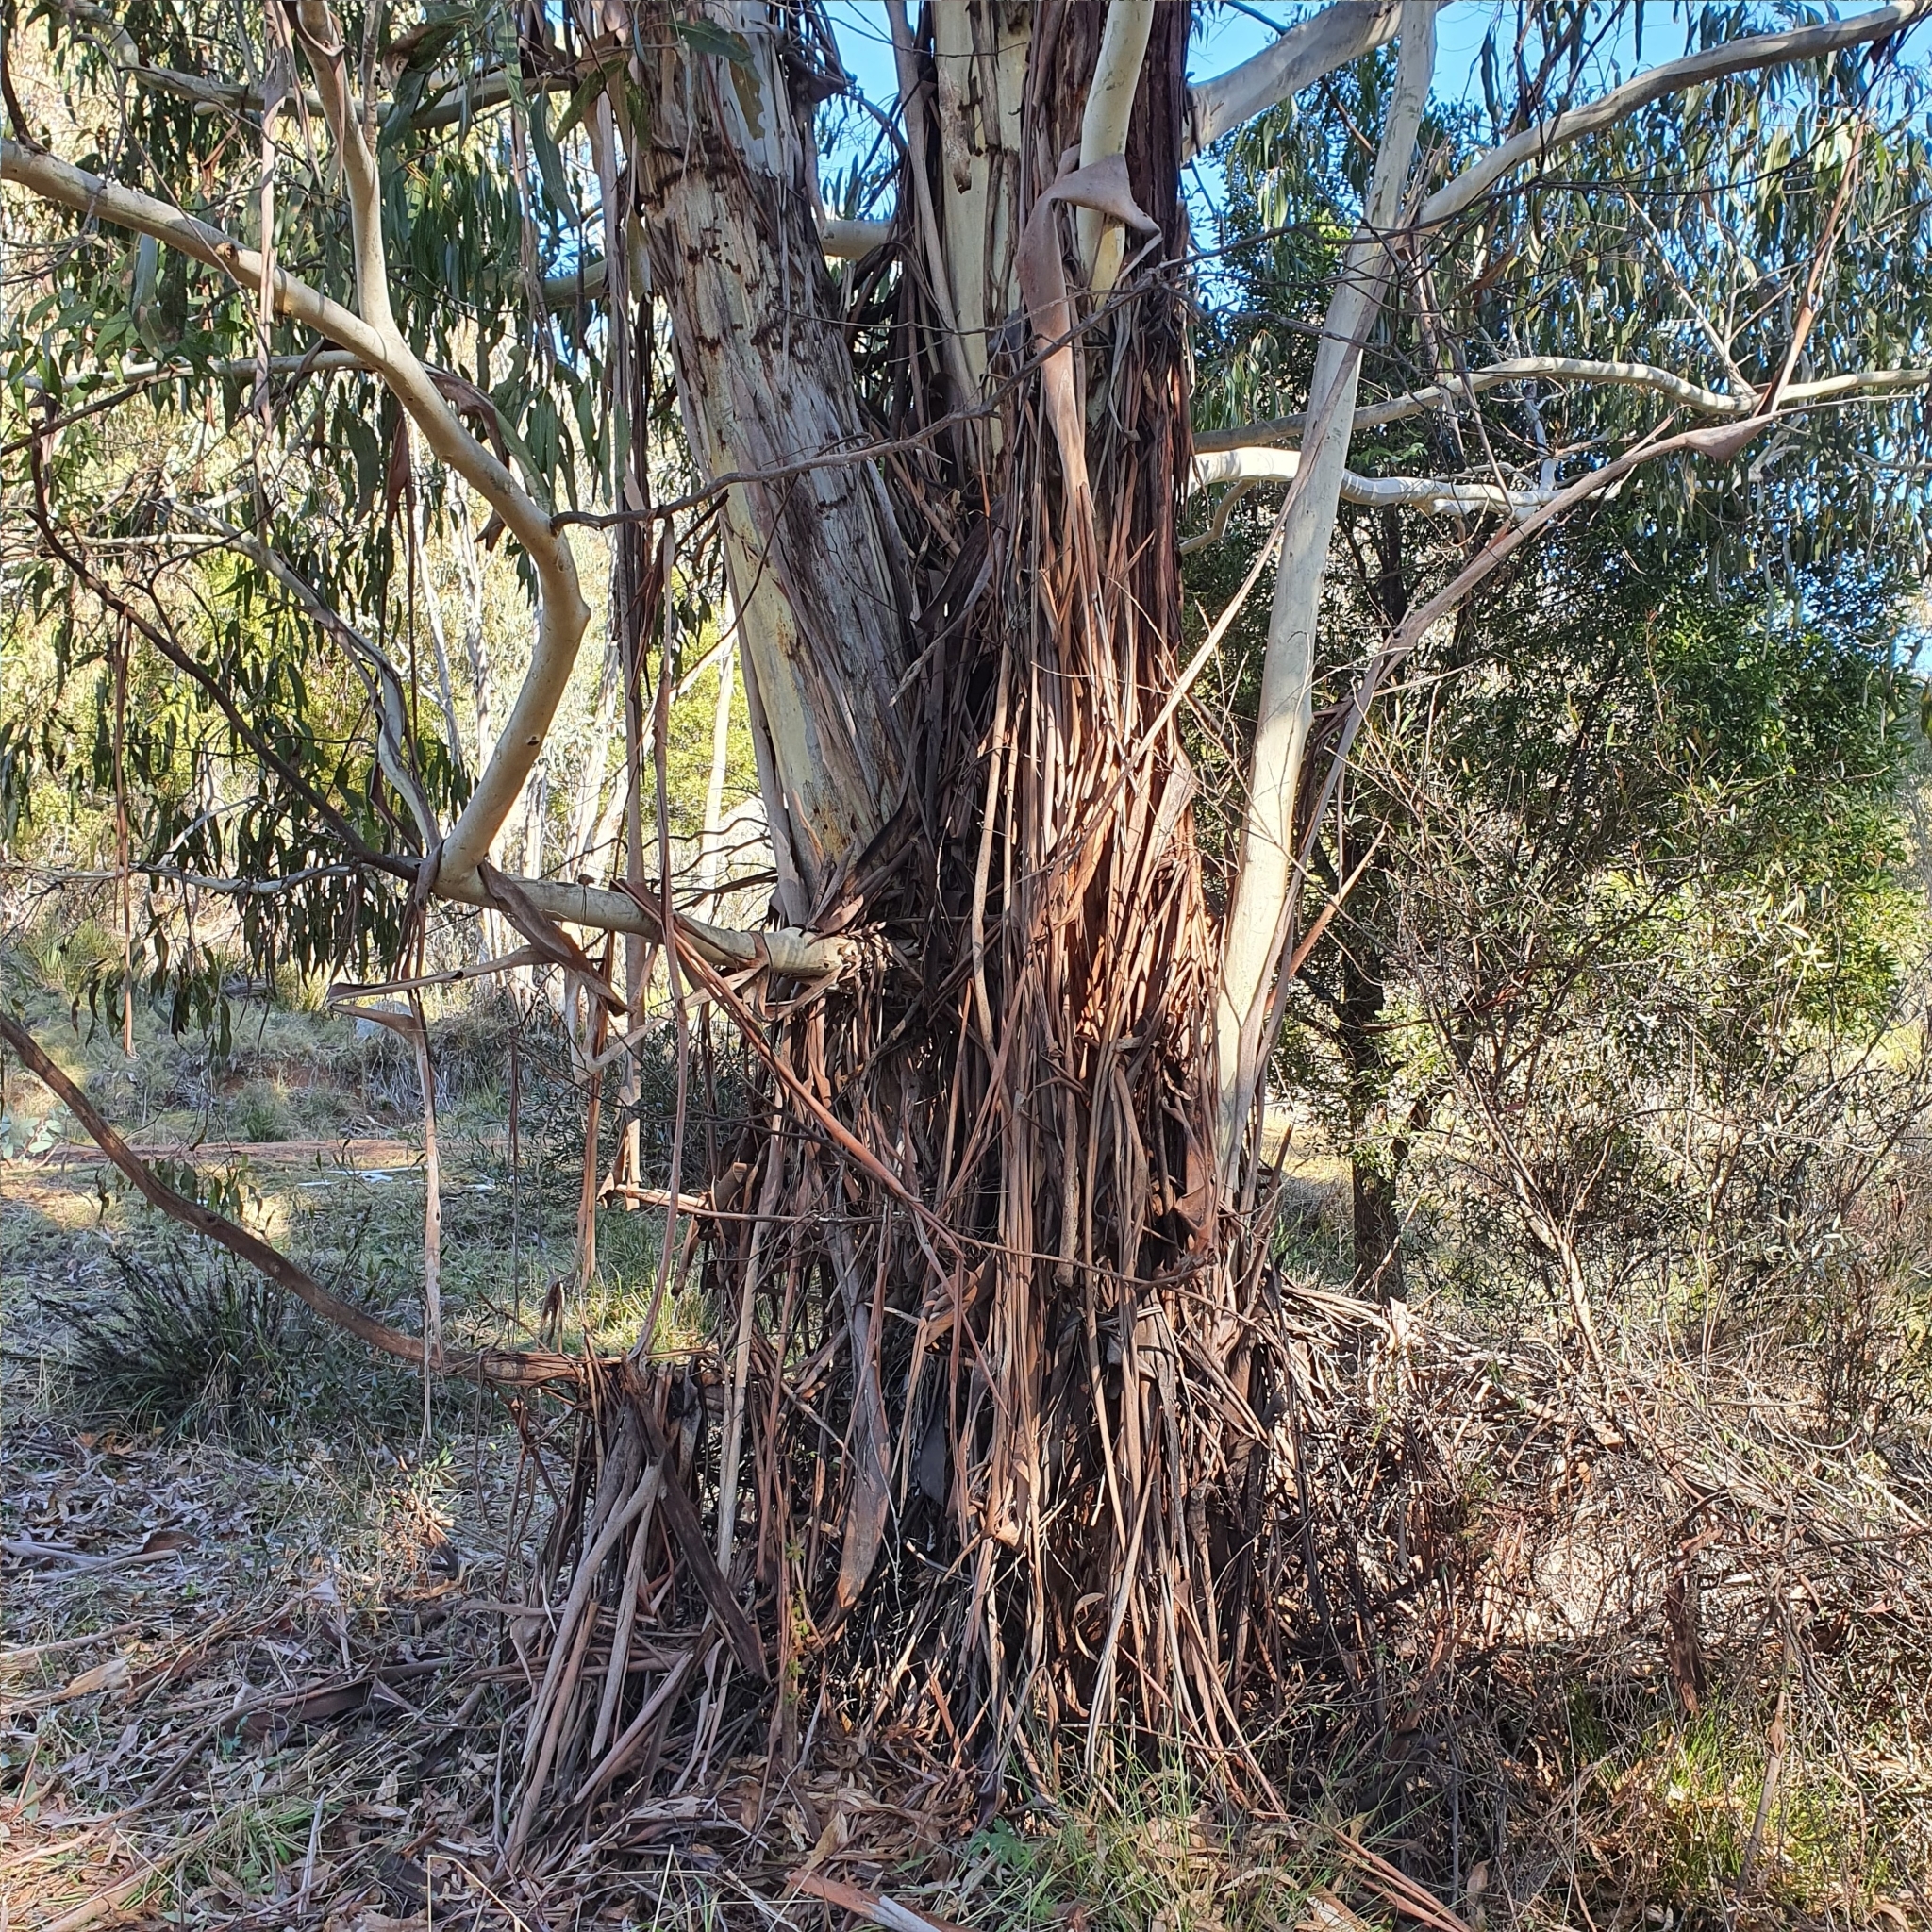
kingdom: Plantae
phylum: Tracheophyta
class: Magnoliopsida
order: Myrtales
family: Myrtaceae
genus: Eucalyptus
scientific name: Eucalyptus viminalis
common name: Manna gum
